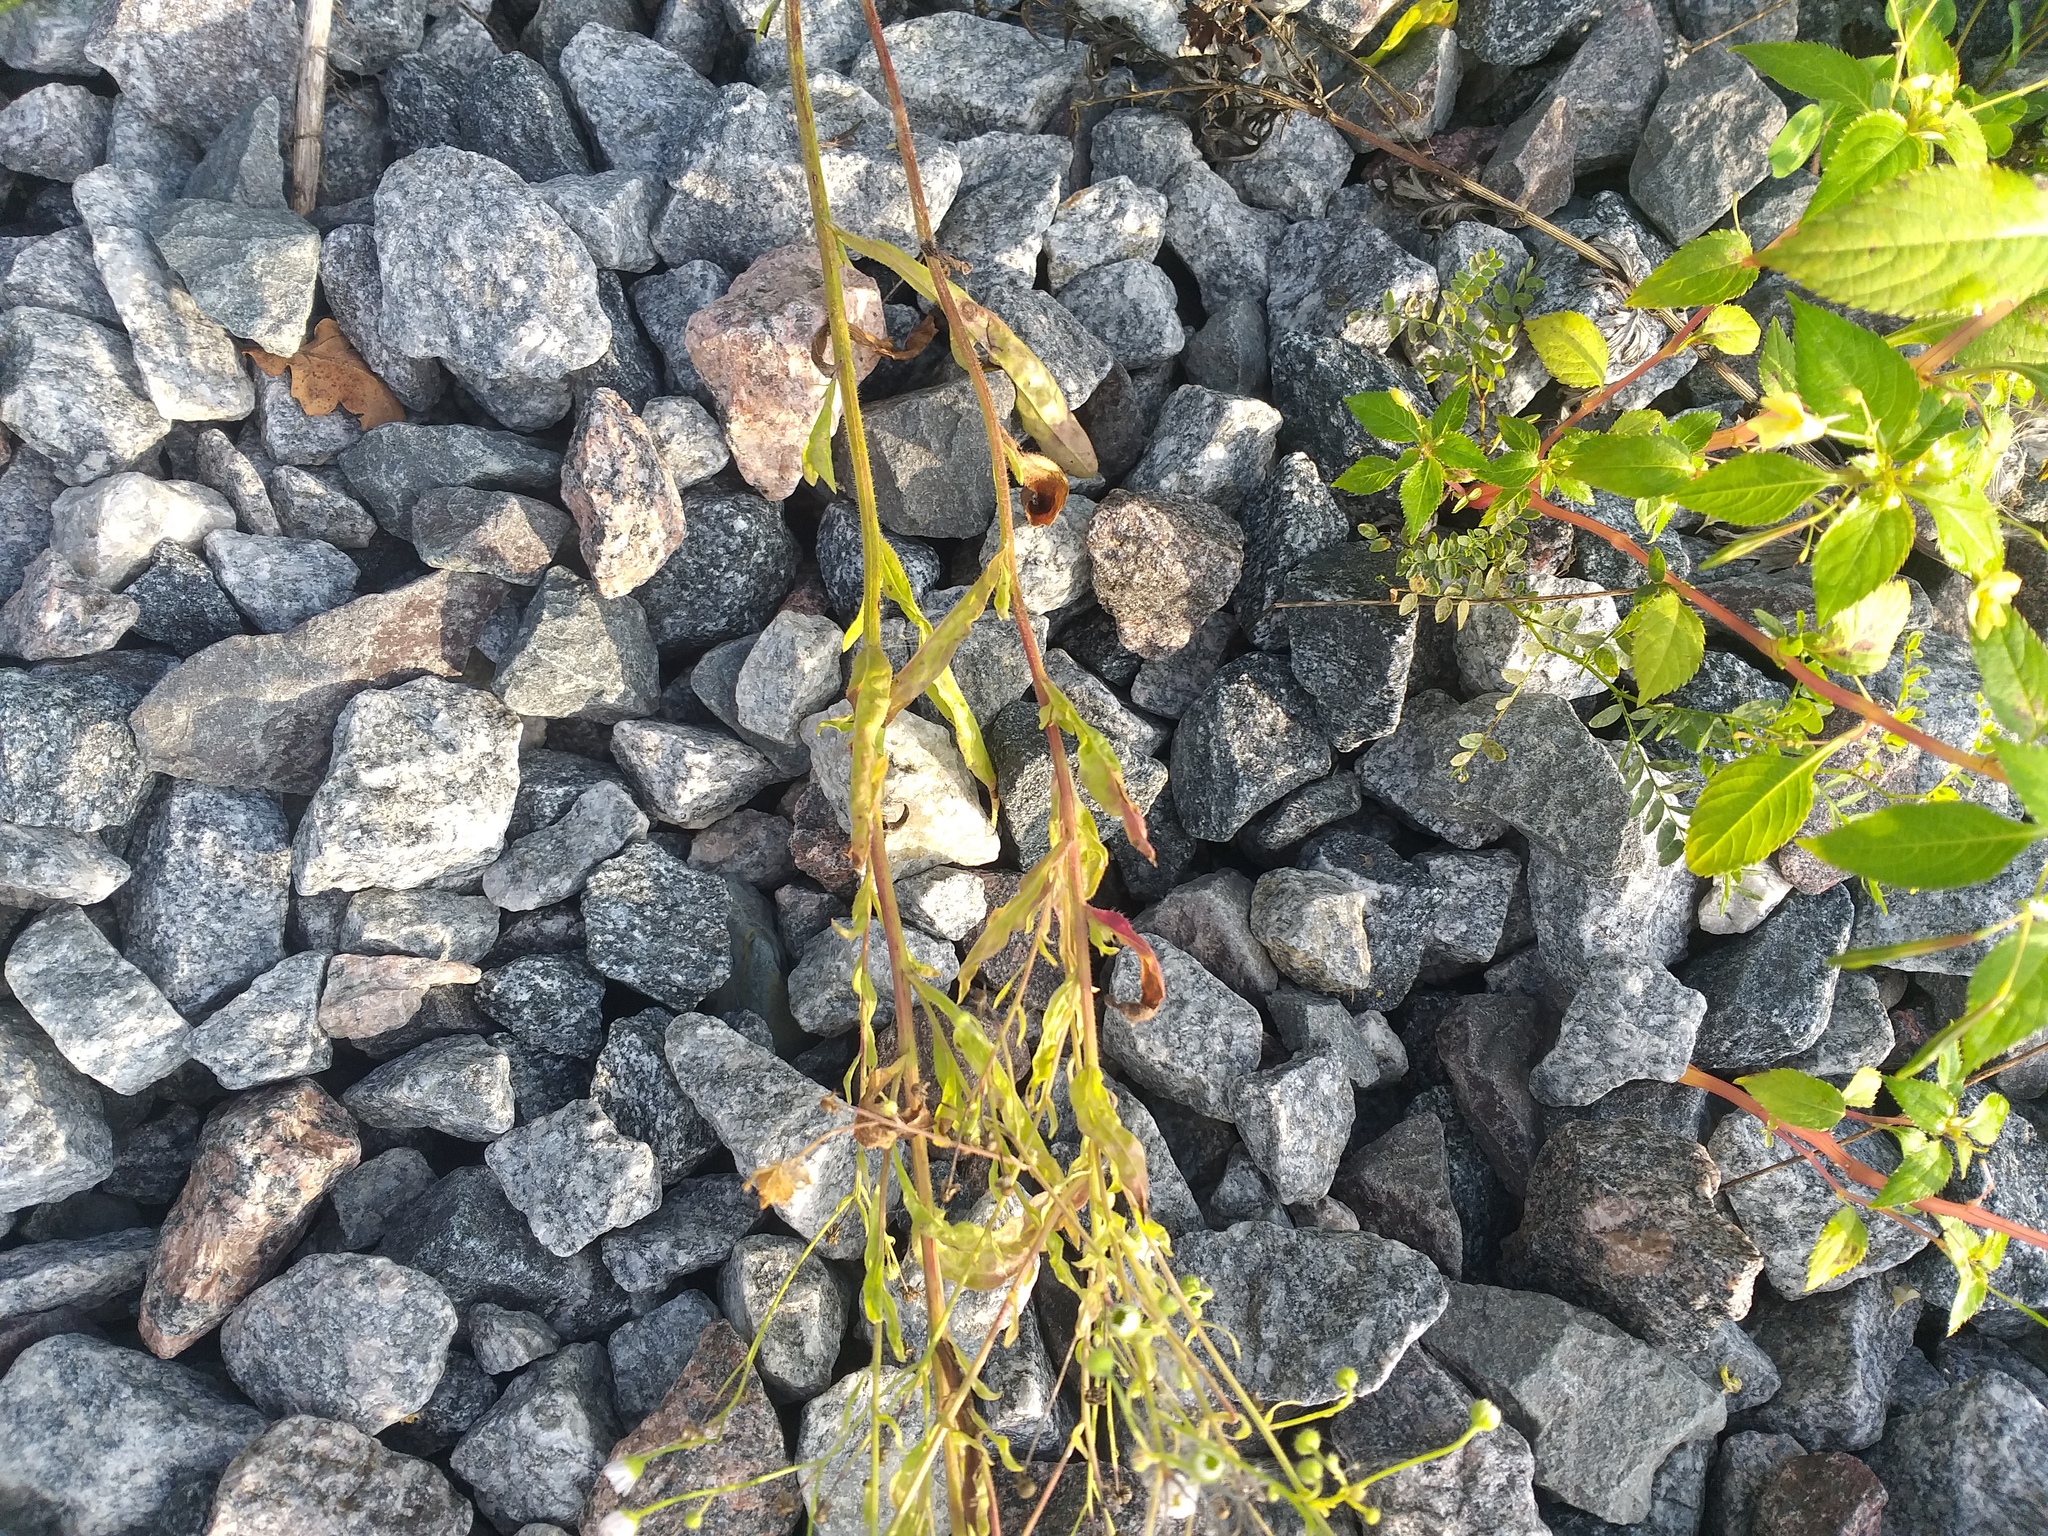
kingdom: Plantae
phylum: Tracheophyta
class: Magnoliopsida
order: Asterales
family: Asteraceae
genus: Erigeron
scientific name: Erigeron annuus
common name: Tall fleabane
